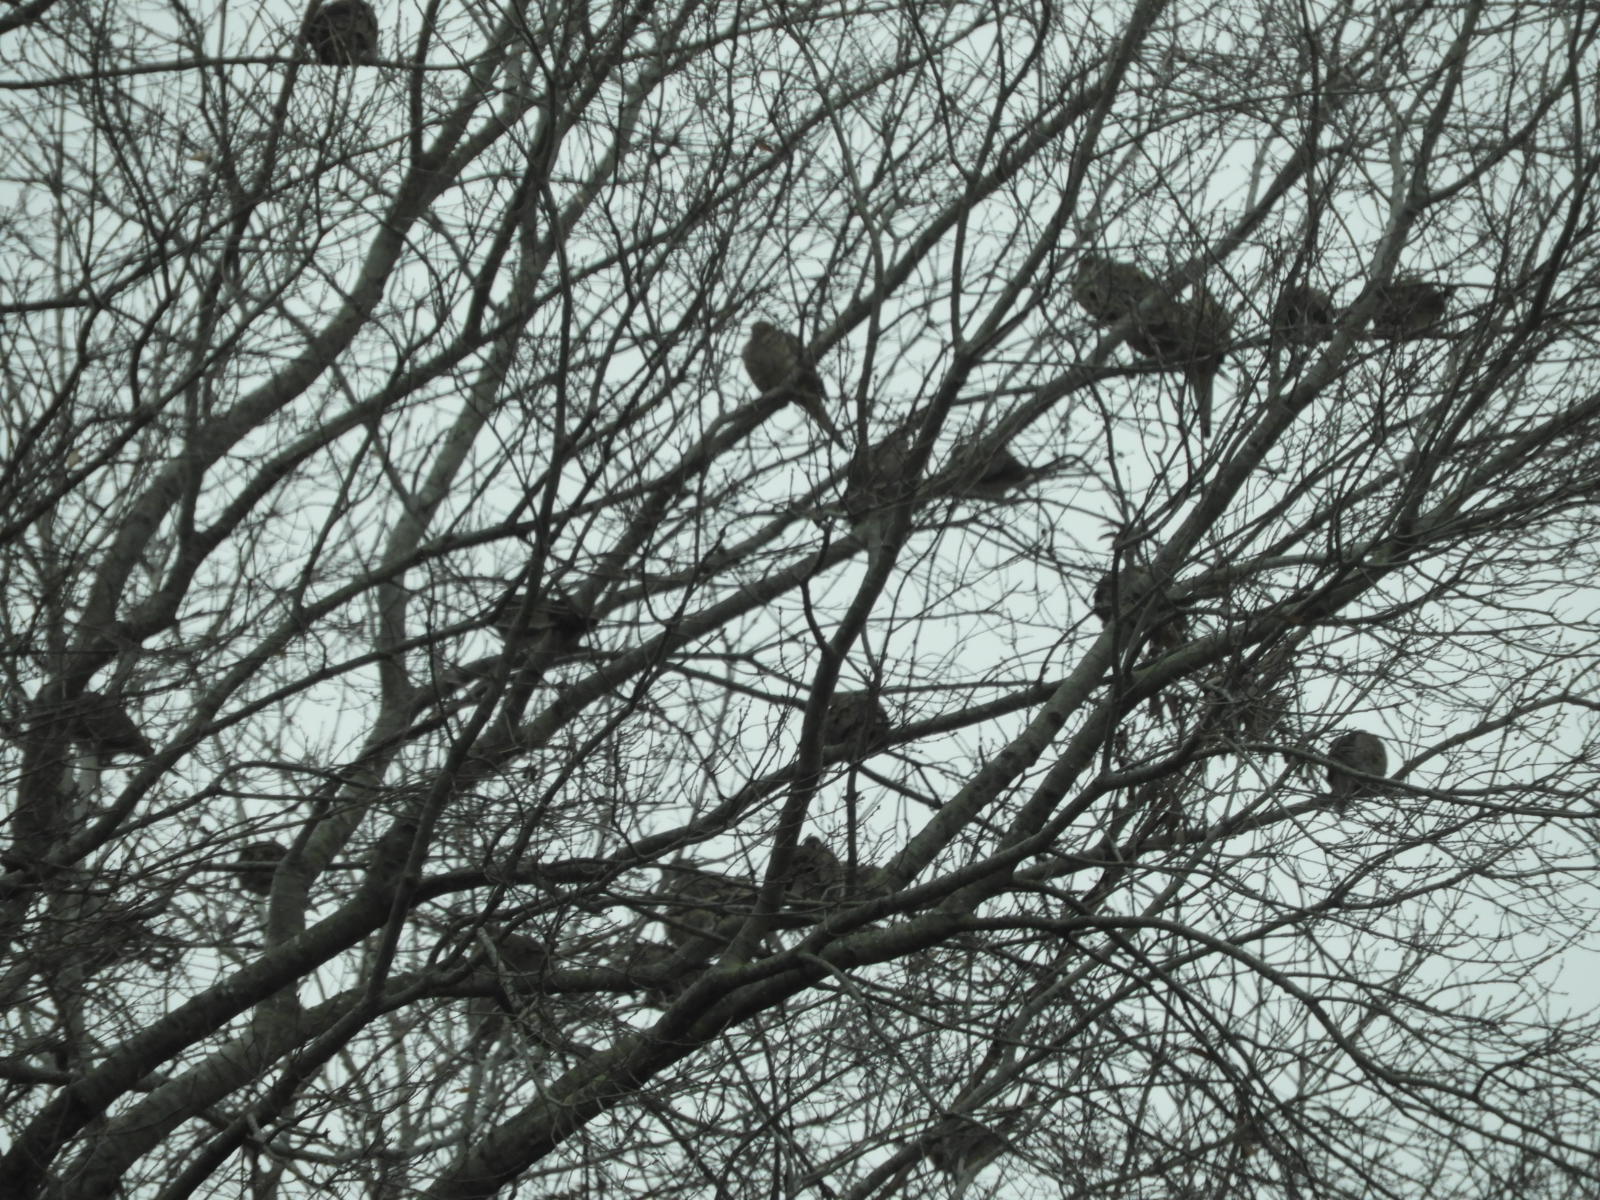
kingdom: Animalia
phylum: Chordata
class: Aves
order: Columbiformes
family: Columbidae
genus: Zenaida
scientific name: Zenaida macroura
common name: Mourning dove
